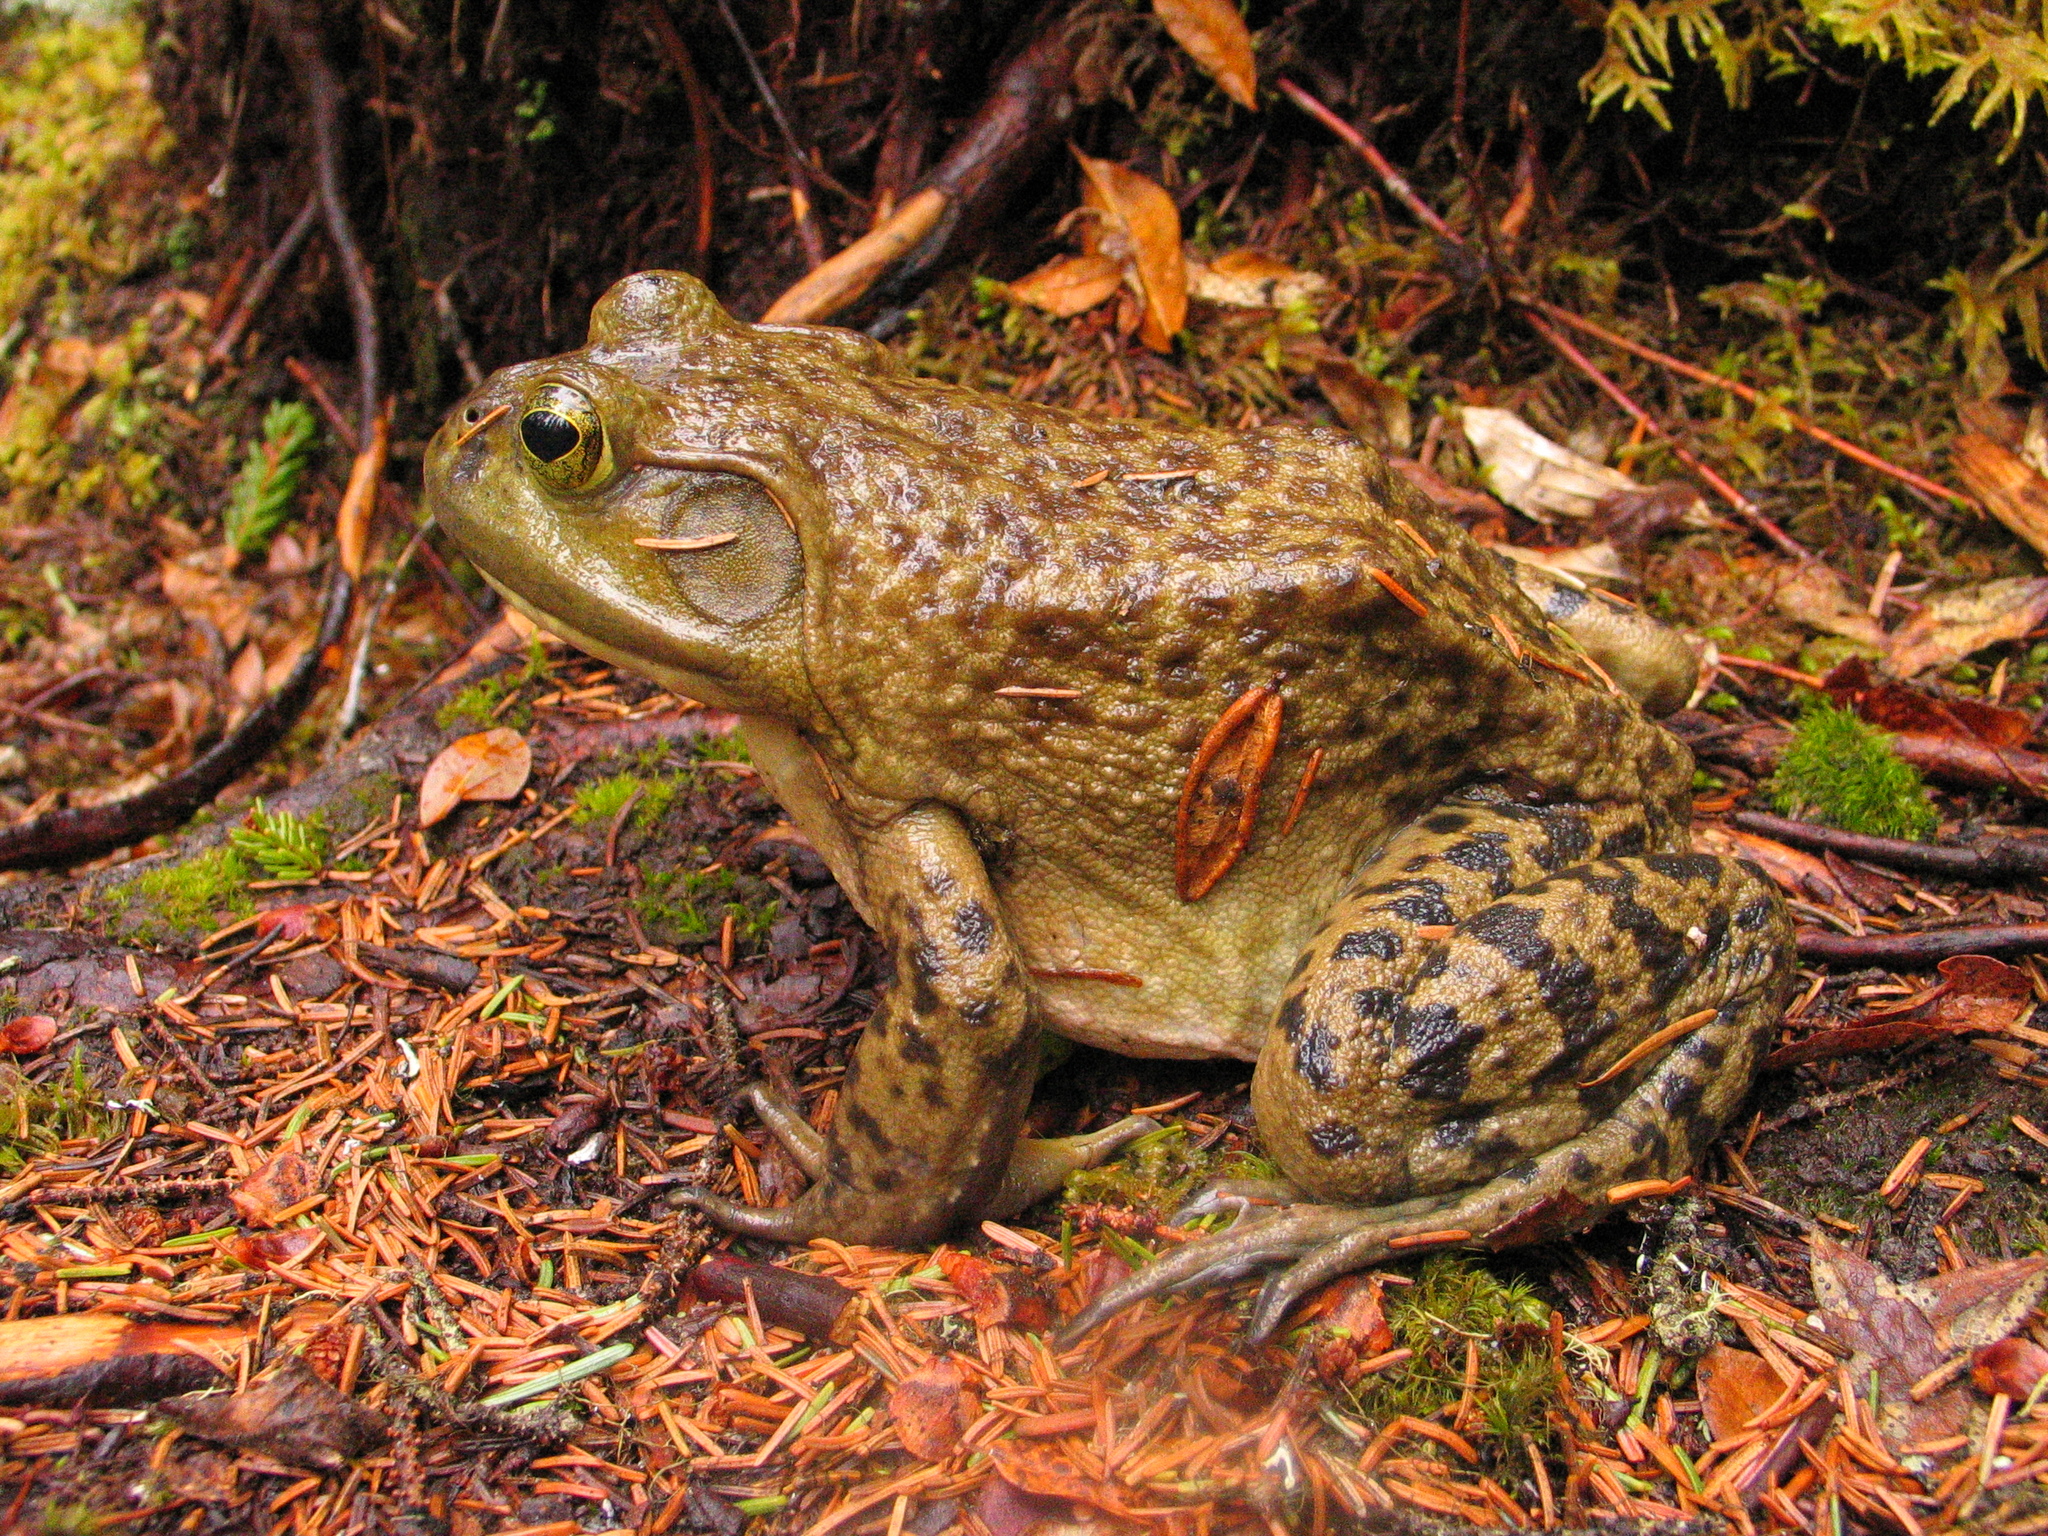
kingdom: Animalia
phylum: Chordata
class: Amphibia
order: Anura
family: Ranidae
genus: Lithobates
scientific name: Lithobates catesbeianus
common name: American bullfrog
